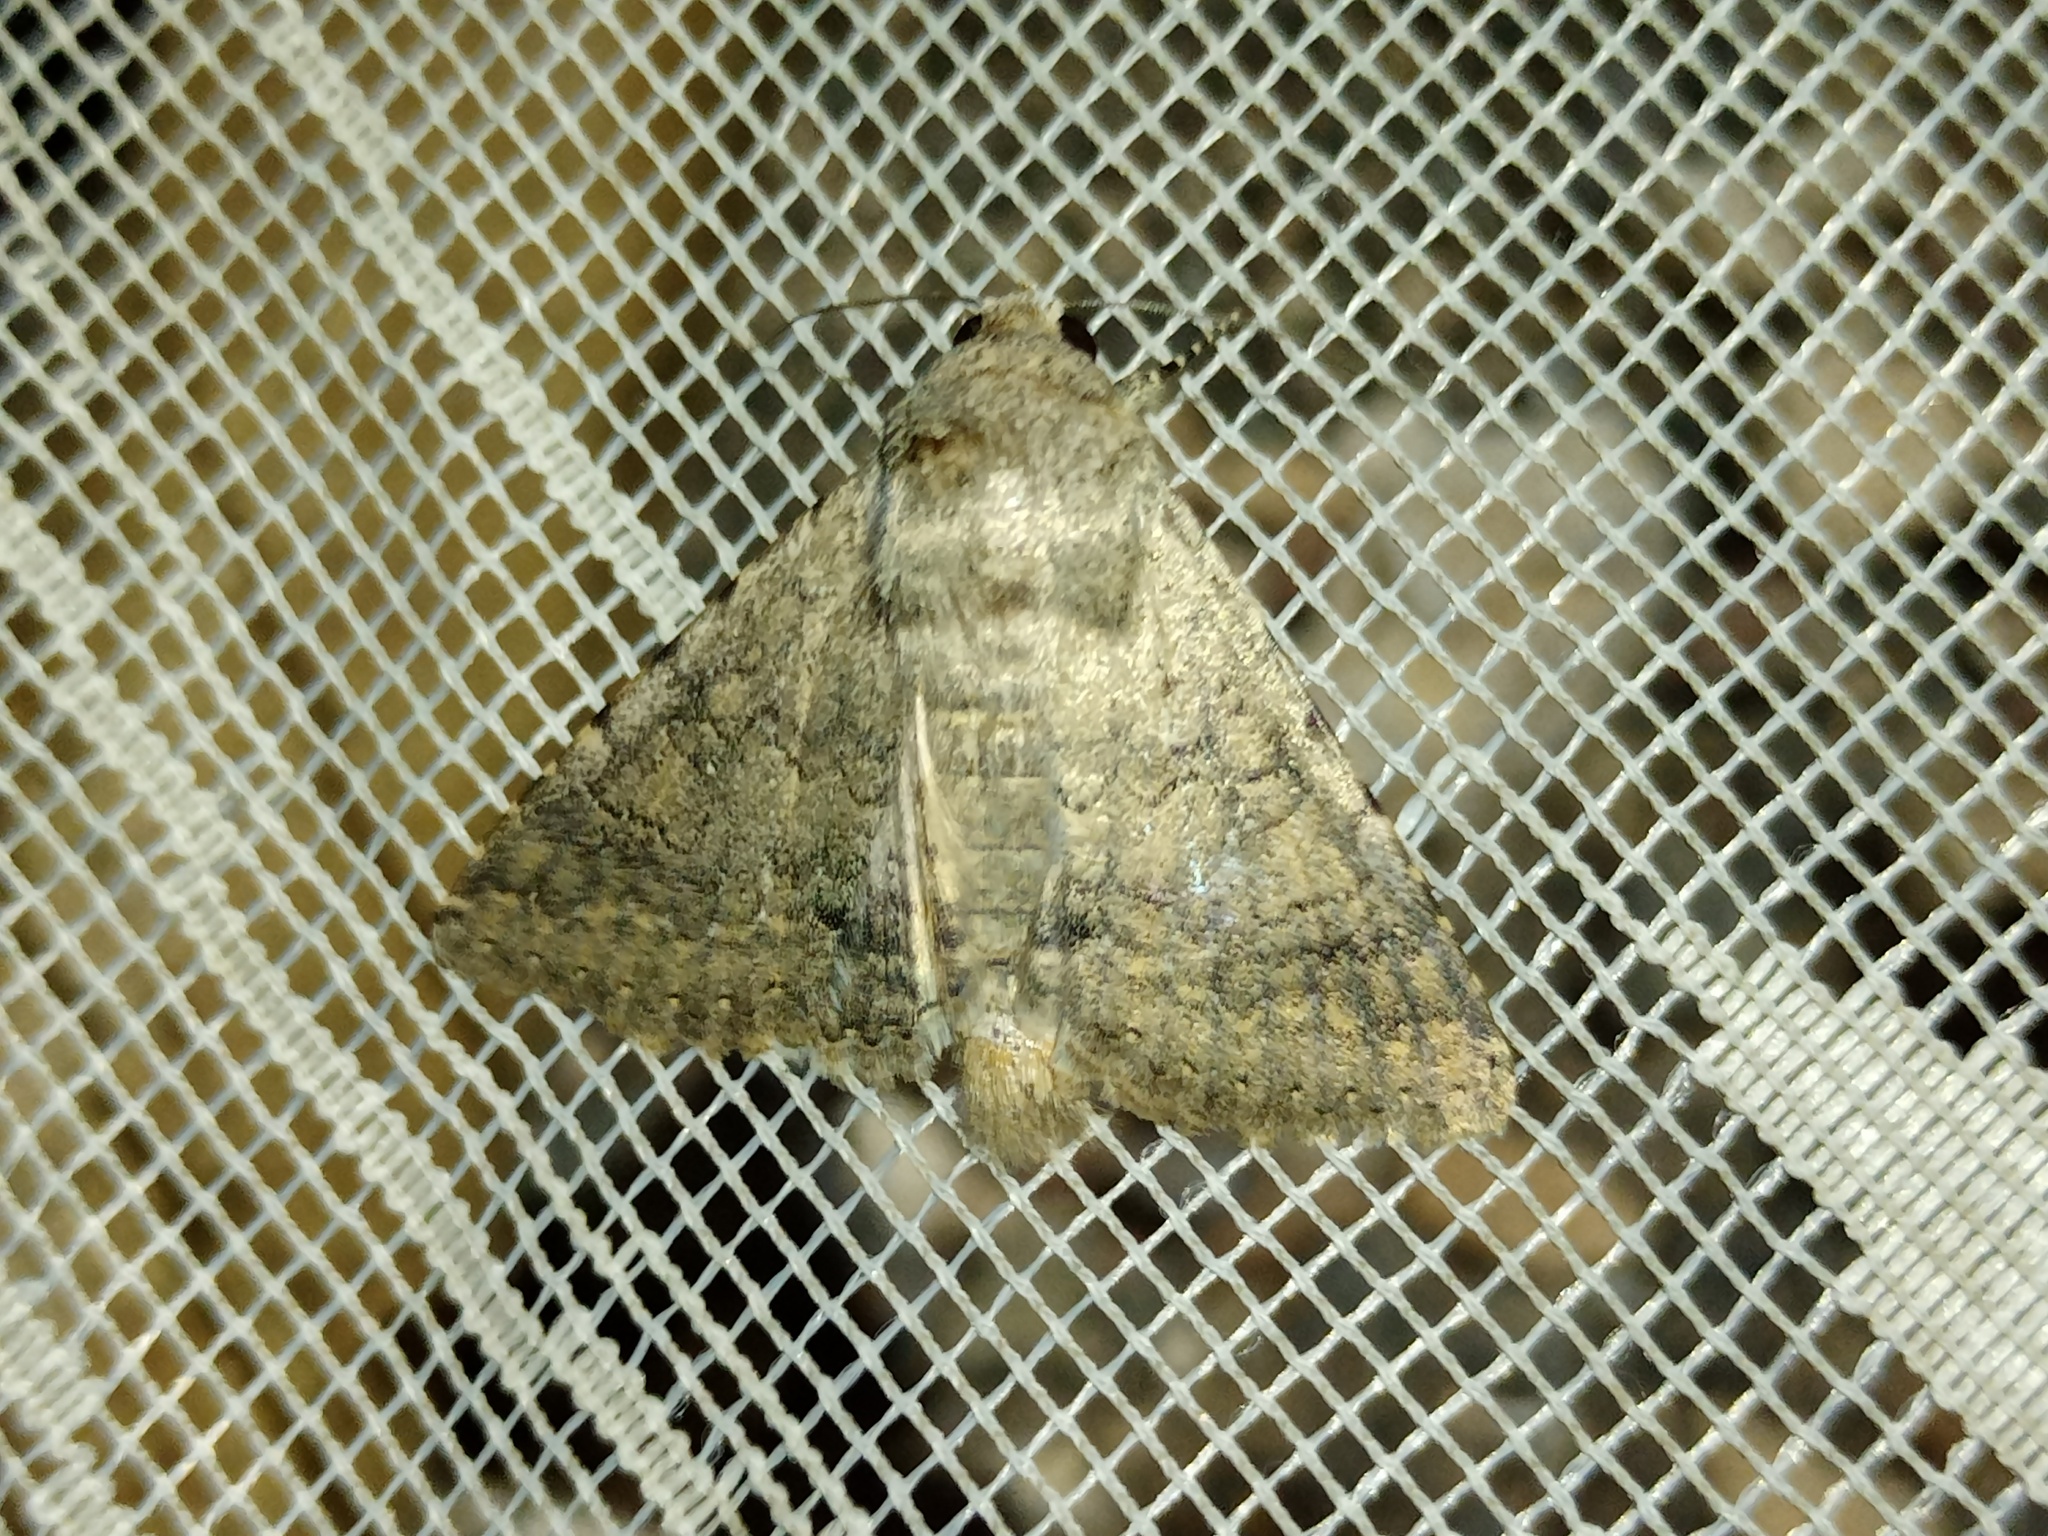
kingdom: Animalia
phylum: Arthropoda
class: Insecta
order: Lepidoptera
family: Erebidae
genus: Pandesma
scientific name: Pandesma robusta
